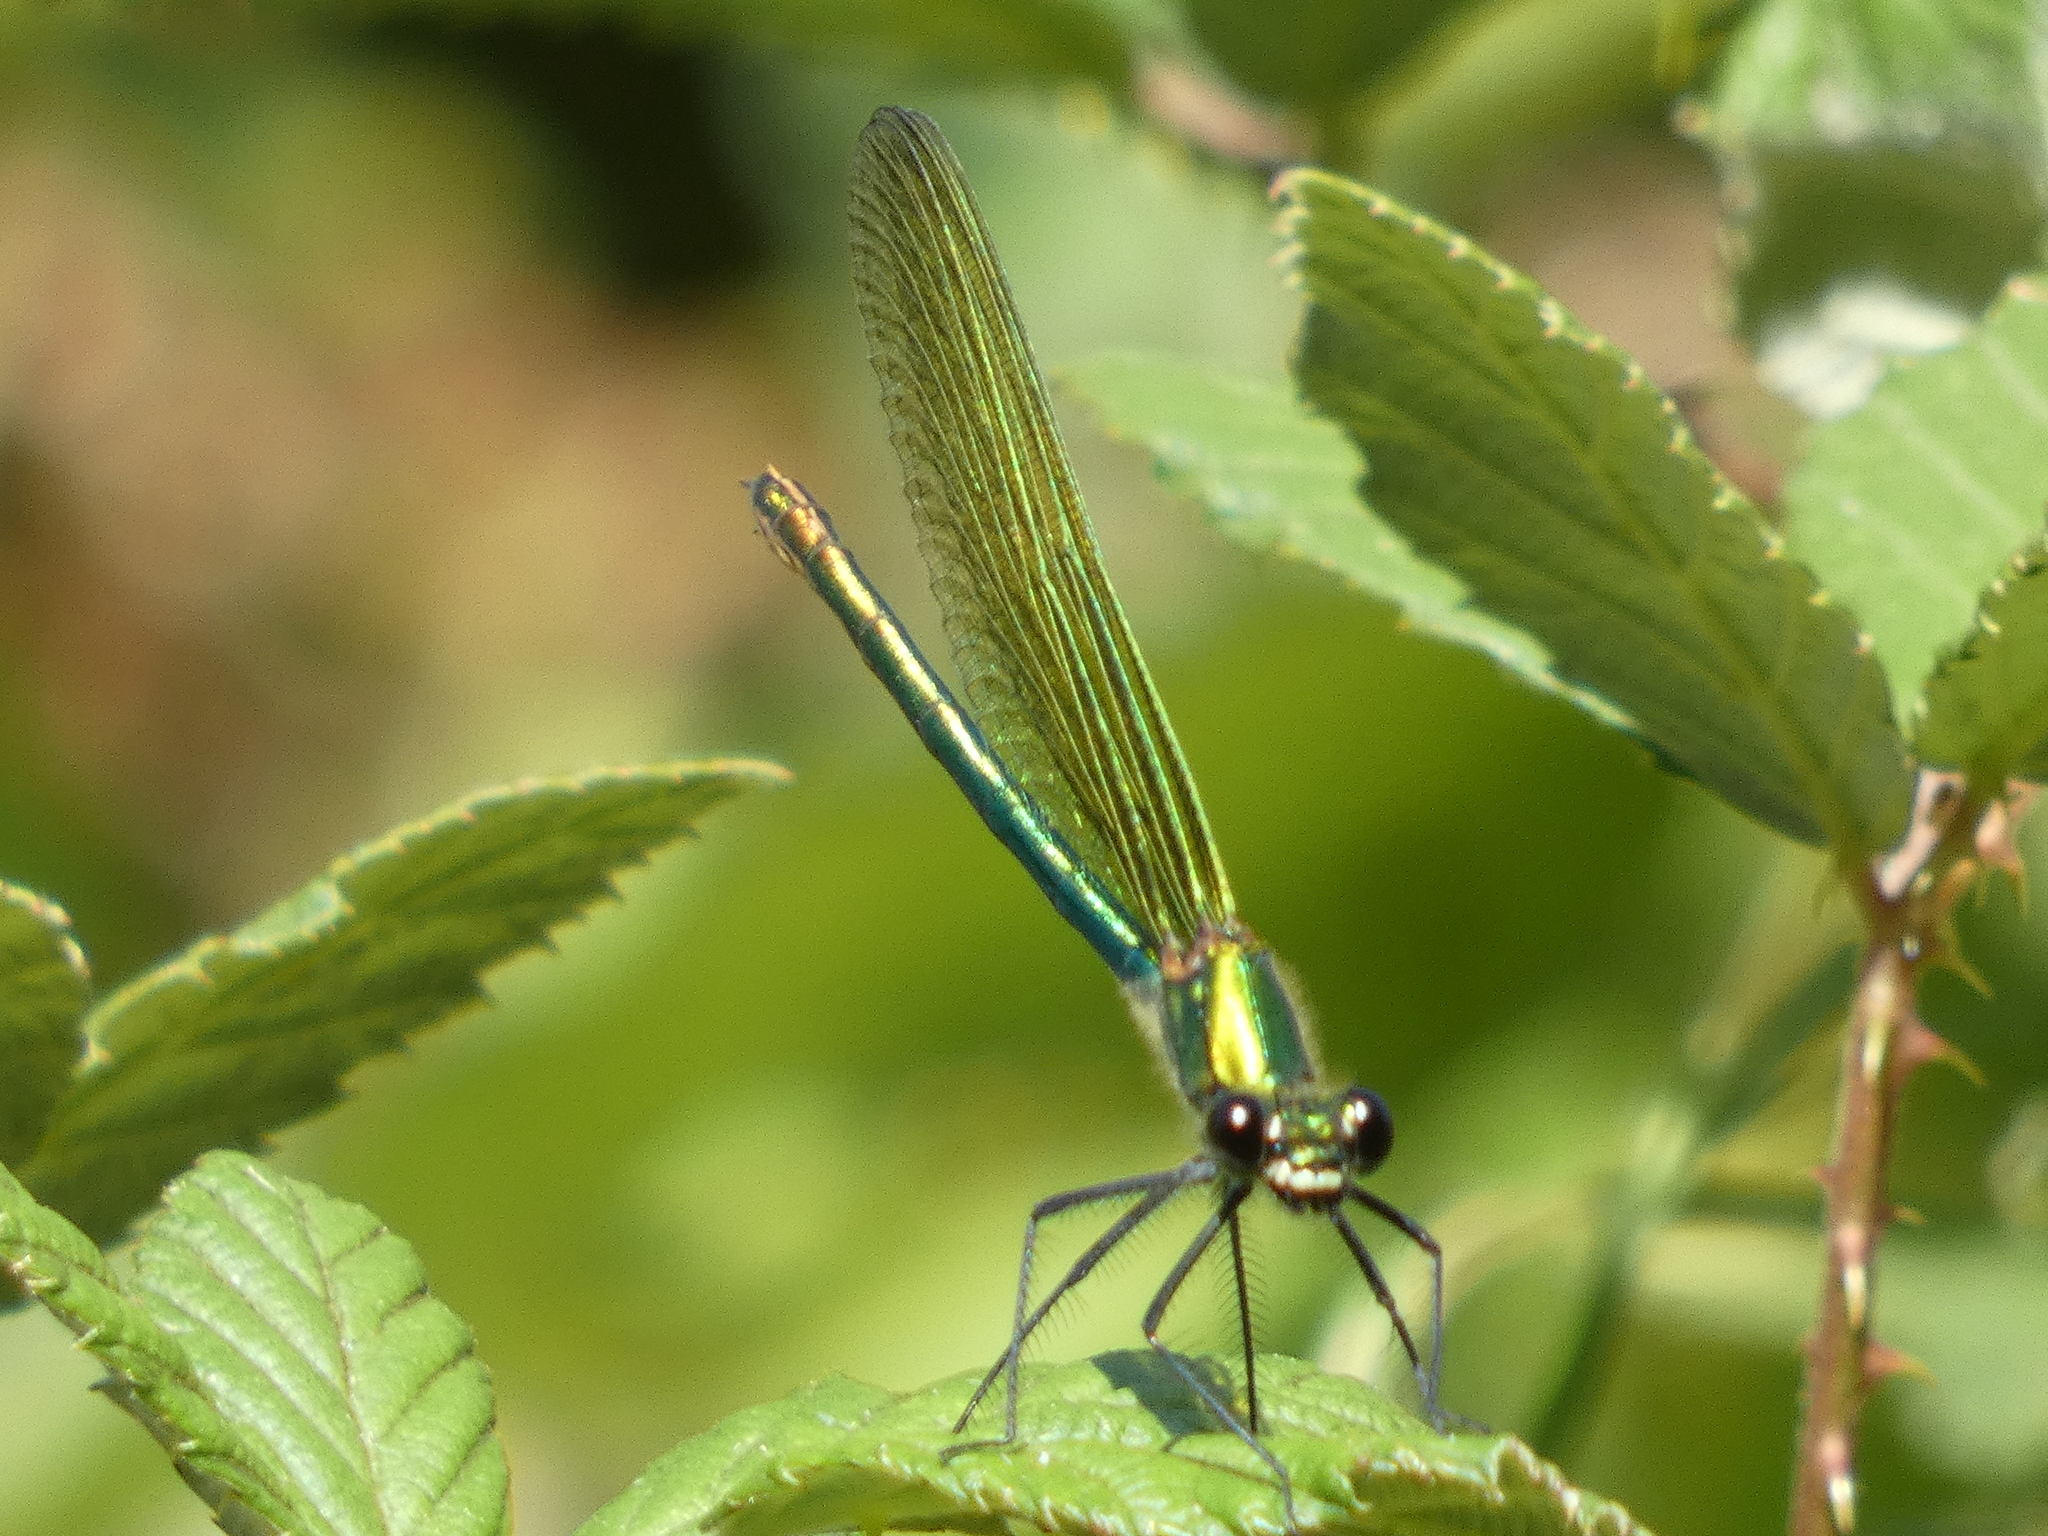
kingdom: Animalia
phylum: Arthropoda
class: Insecta
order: Odonata
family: Calopterygidae
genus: Calopteryx
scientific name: Calopteryx splendens
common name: Banded demoiselle
